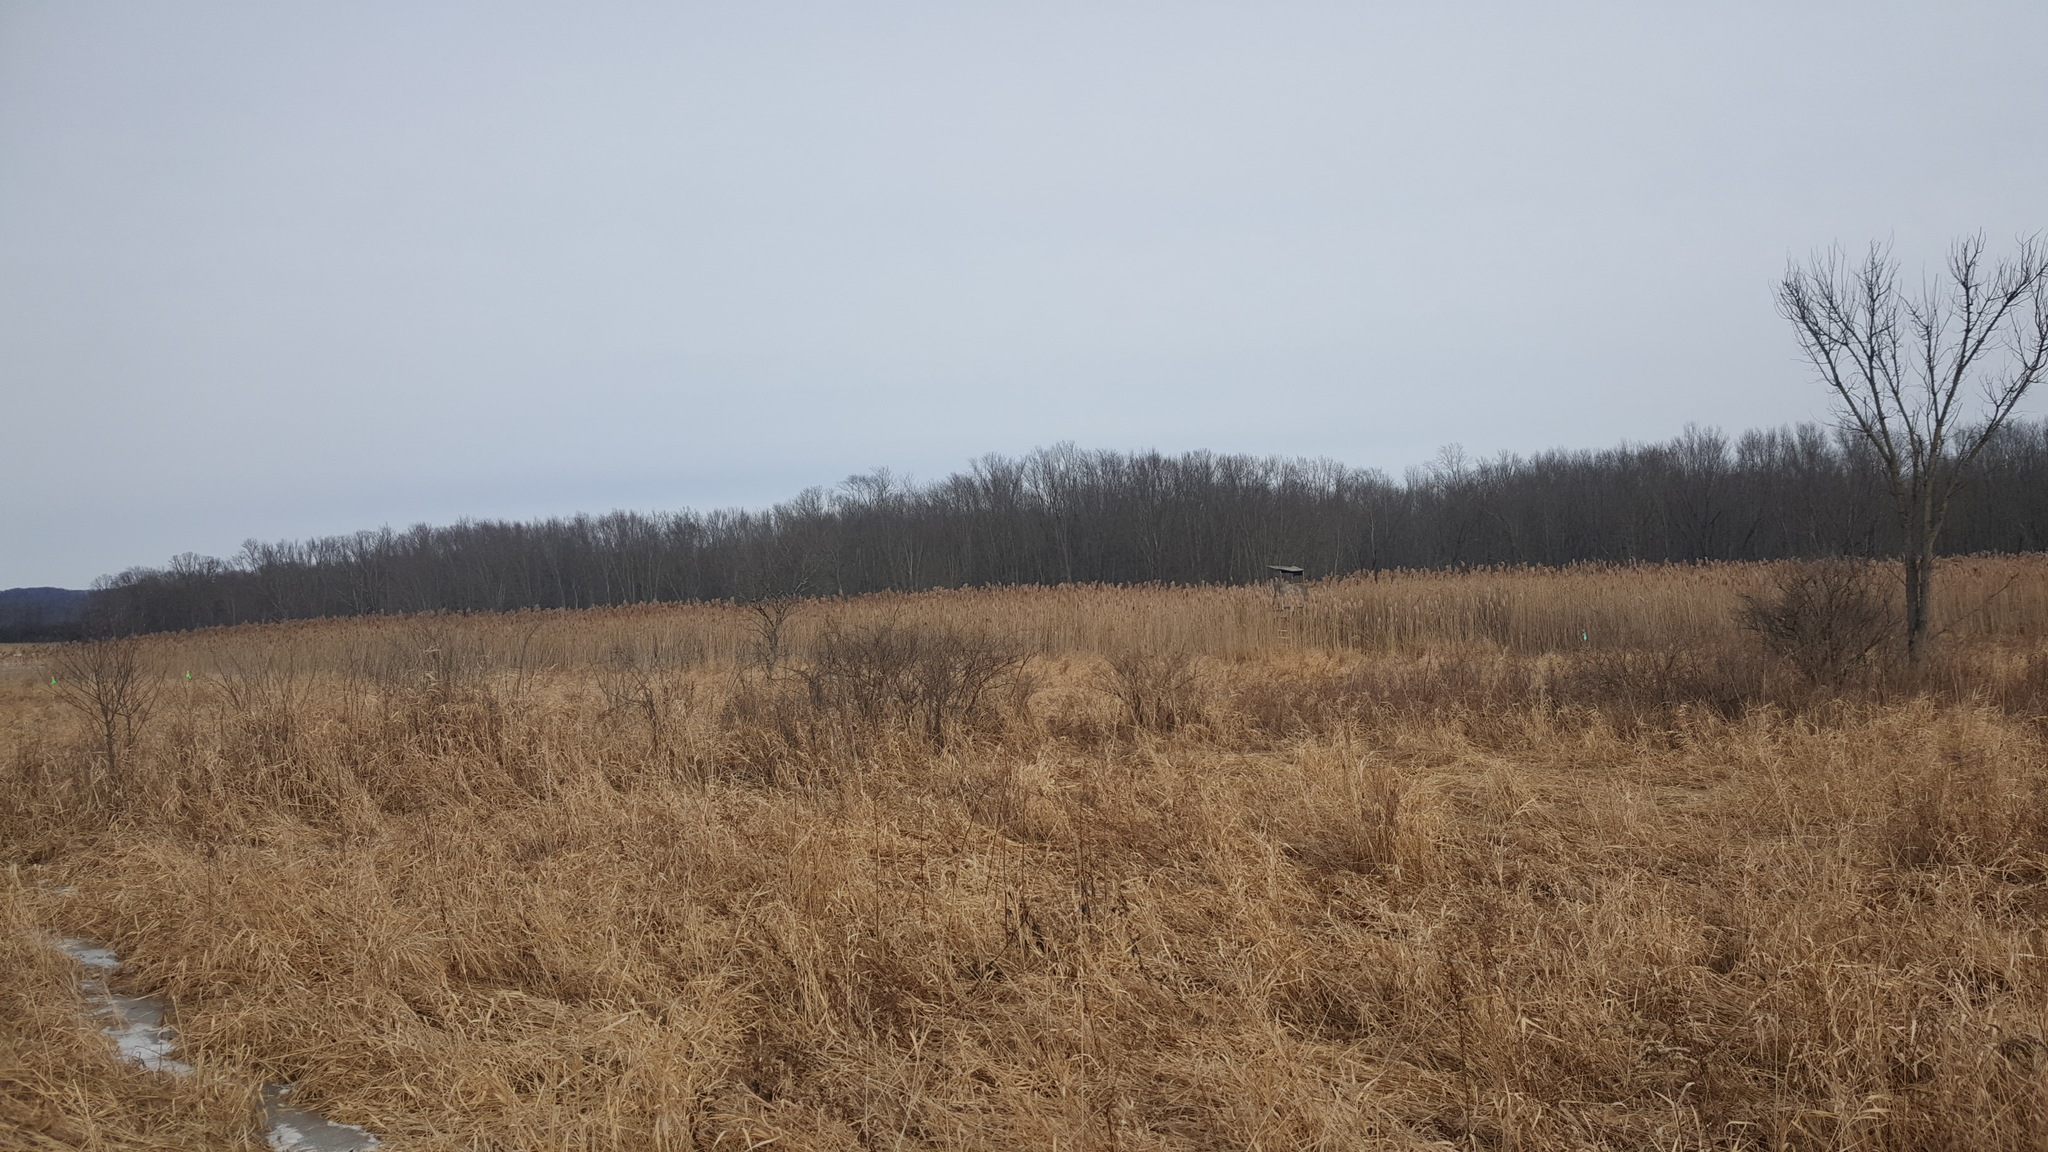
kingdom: Plantae
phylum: Tracheophyta
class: Liliopsida
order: Poales
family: Poaceae
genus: Phragmites
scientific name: Phragmites australis
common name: Common reed
